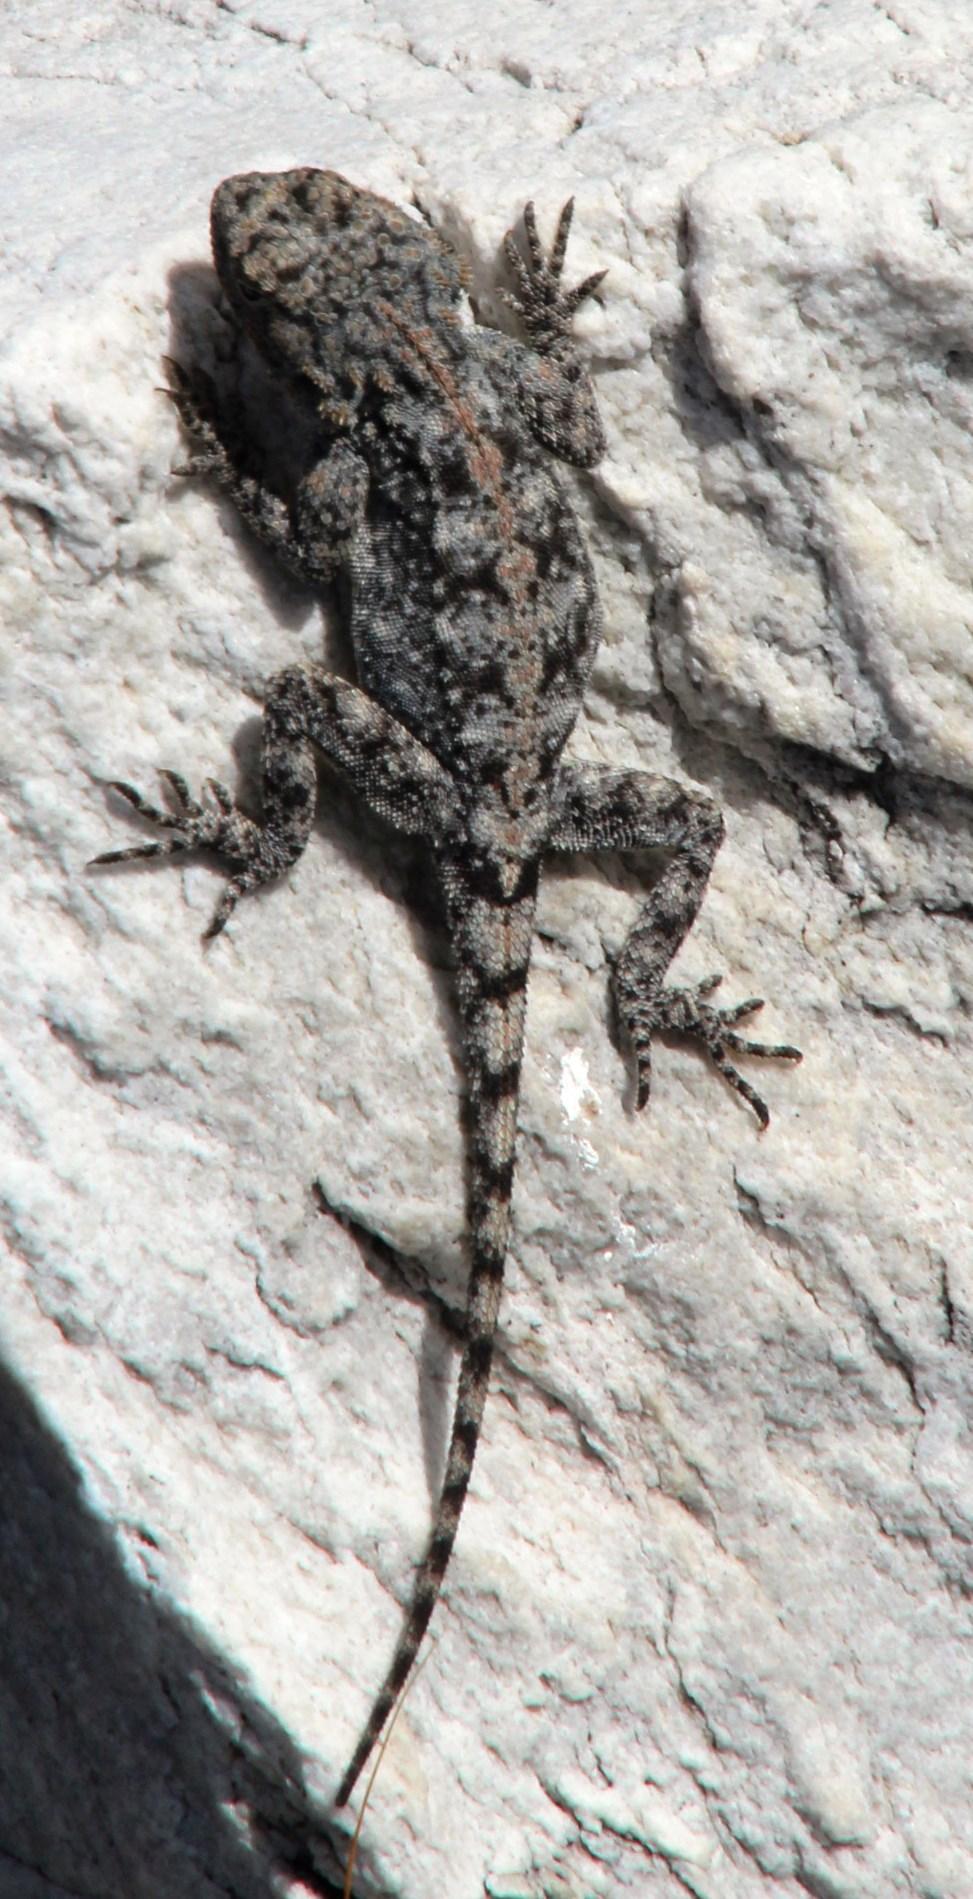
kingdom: Animalia
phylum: Chordata
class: Squamata
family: Agamidae
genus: Agama
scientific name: Agama atra
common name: Southern african rock agama
